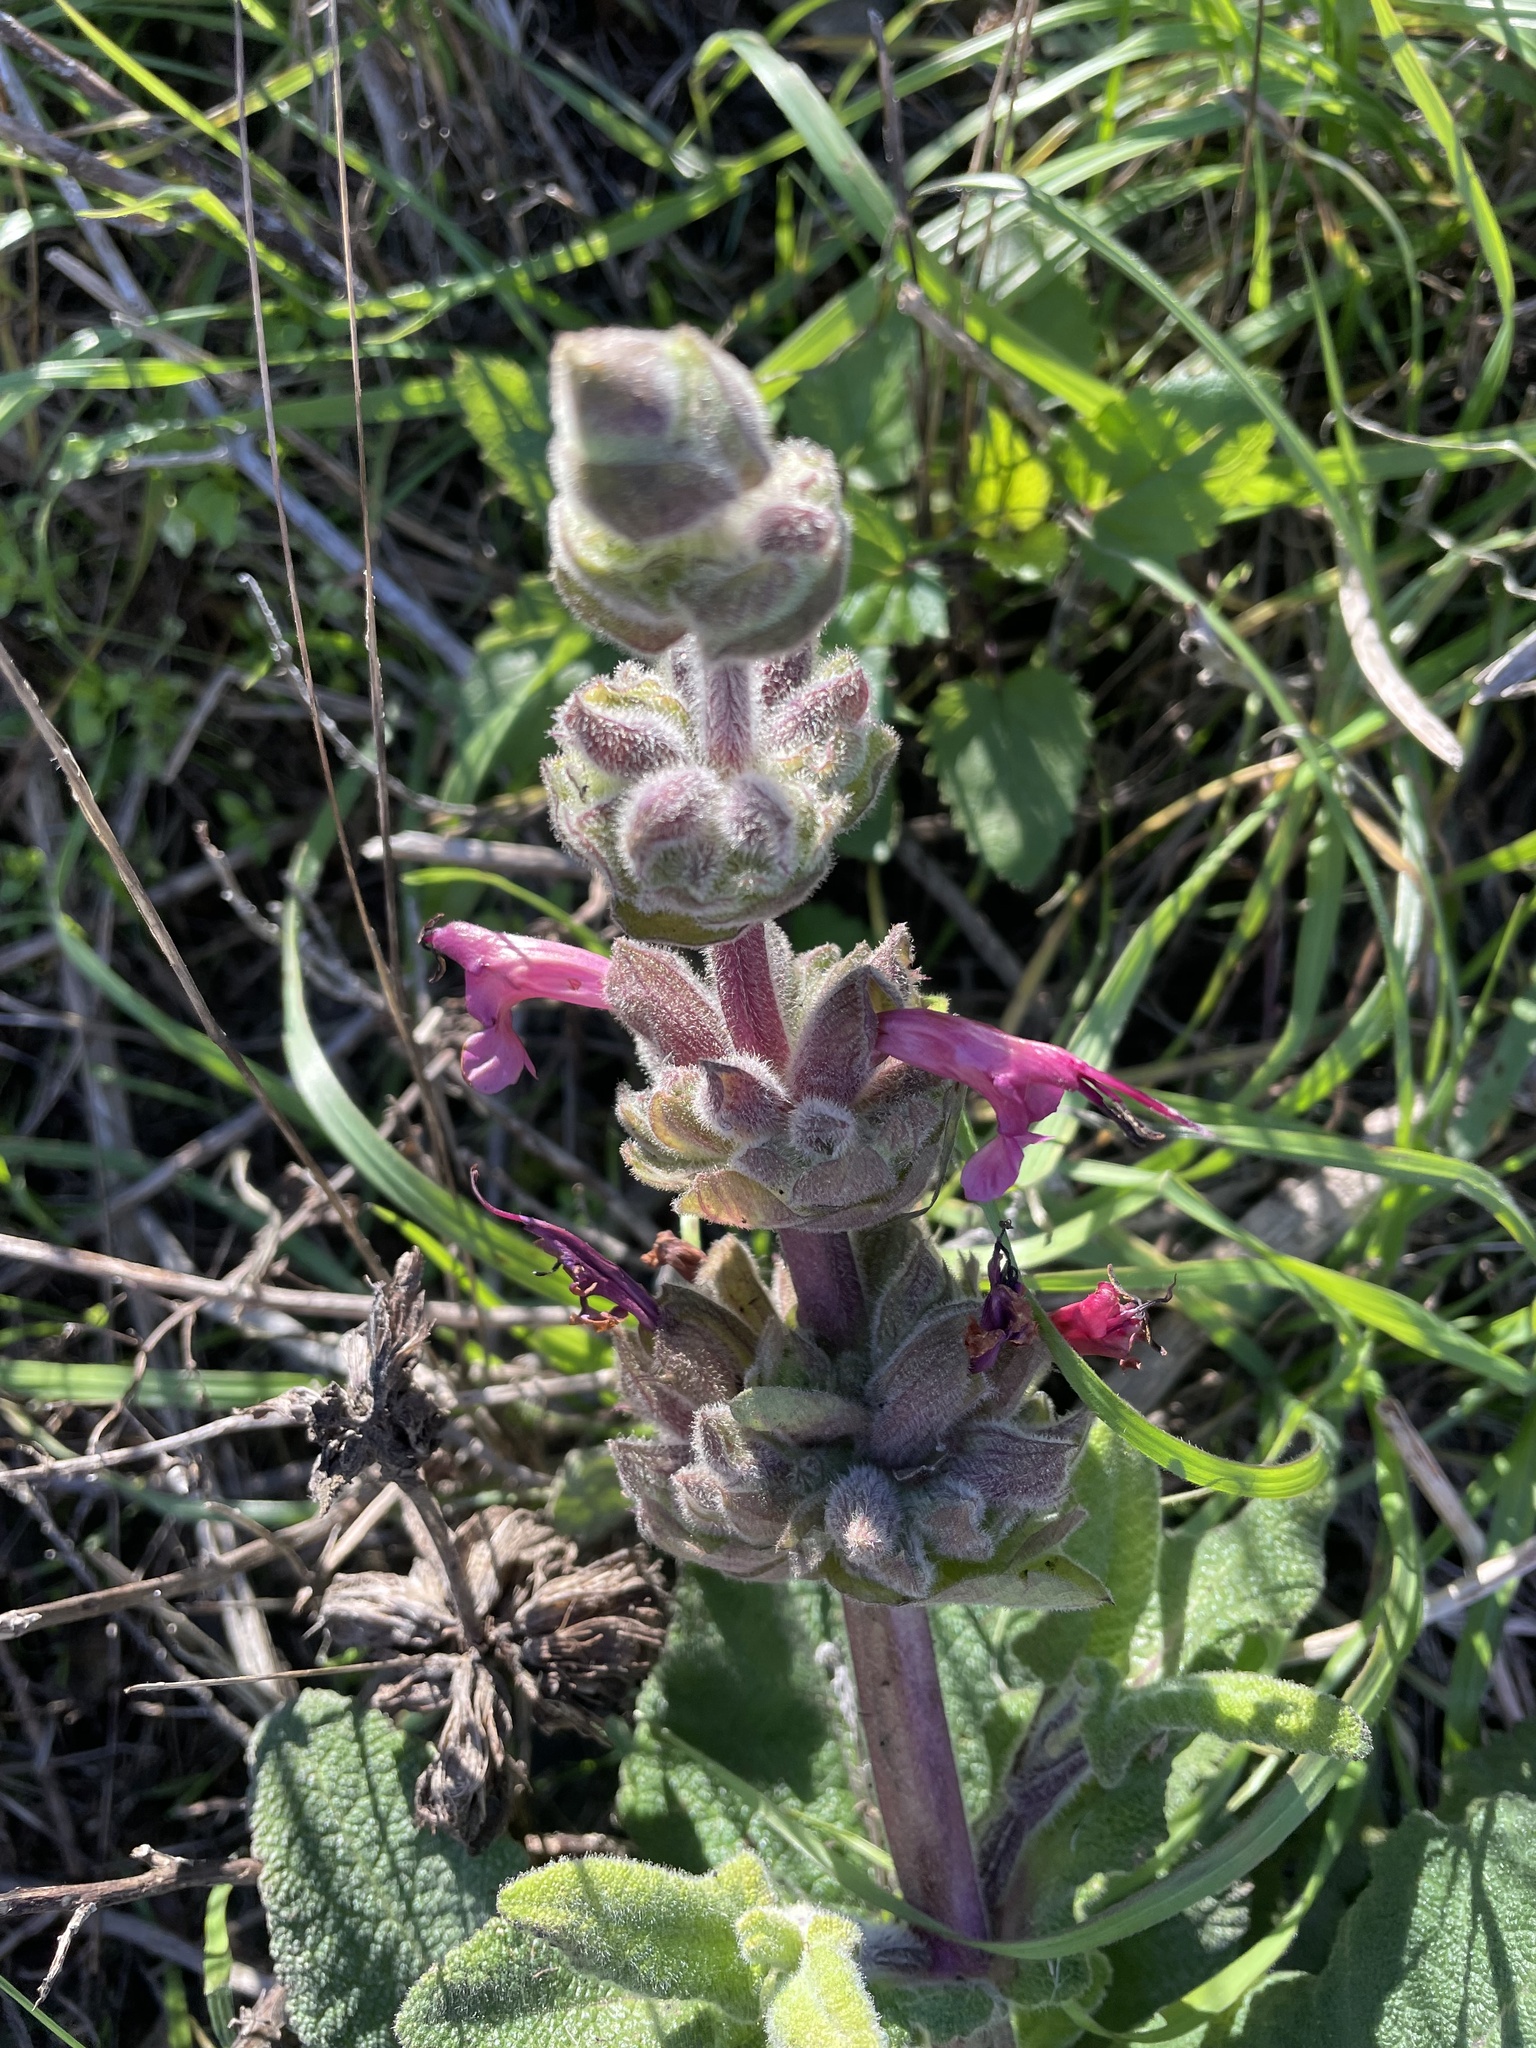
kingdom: Plantae
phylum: Tracheophyta
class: Magnoliopsida
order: Lamiales
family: Lamiaceae
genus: Salvia
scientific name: Salvia spathacea
